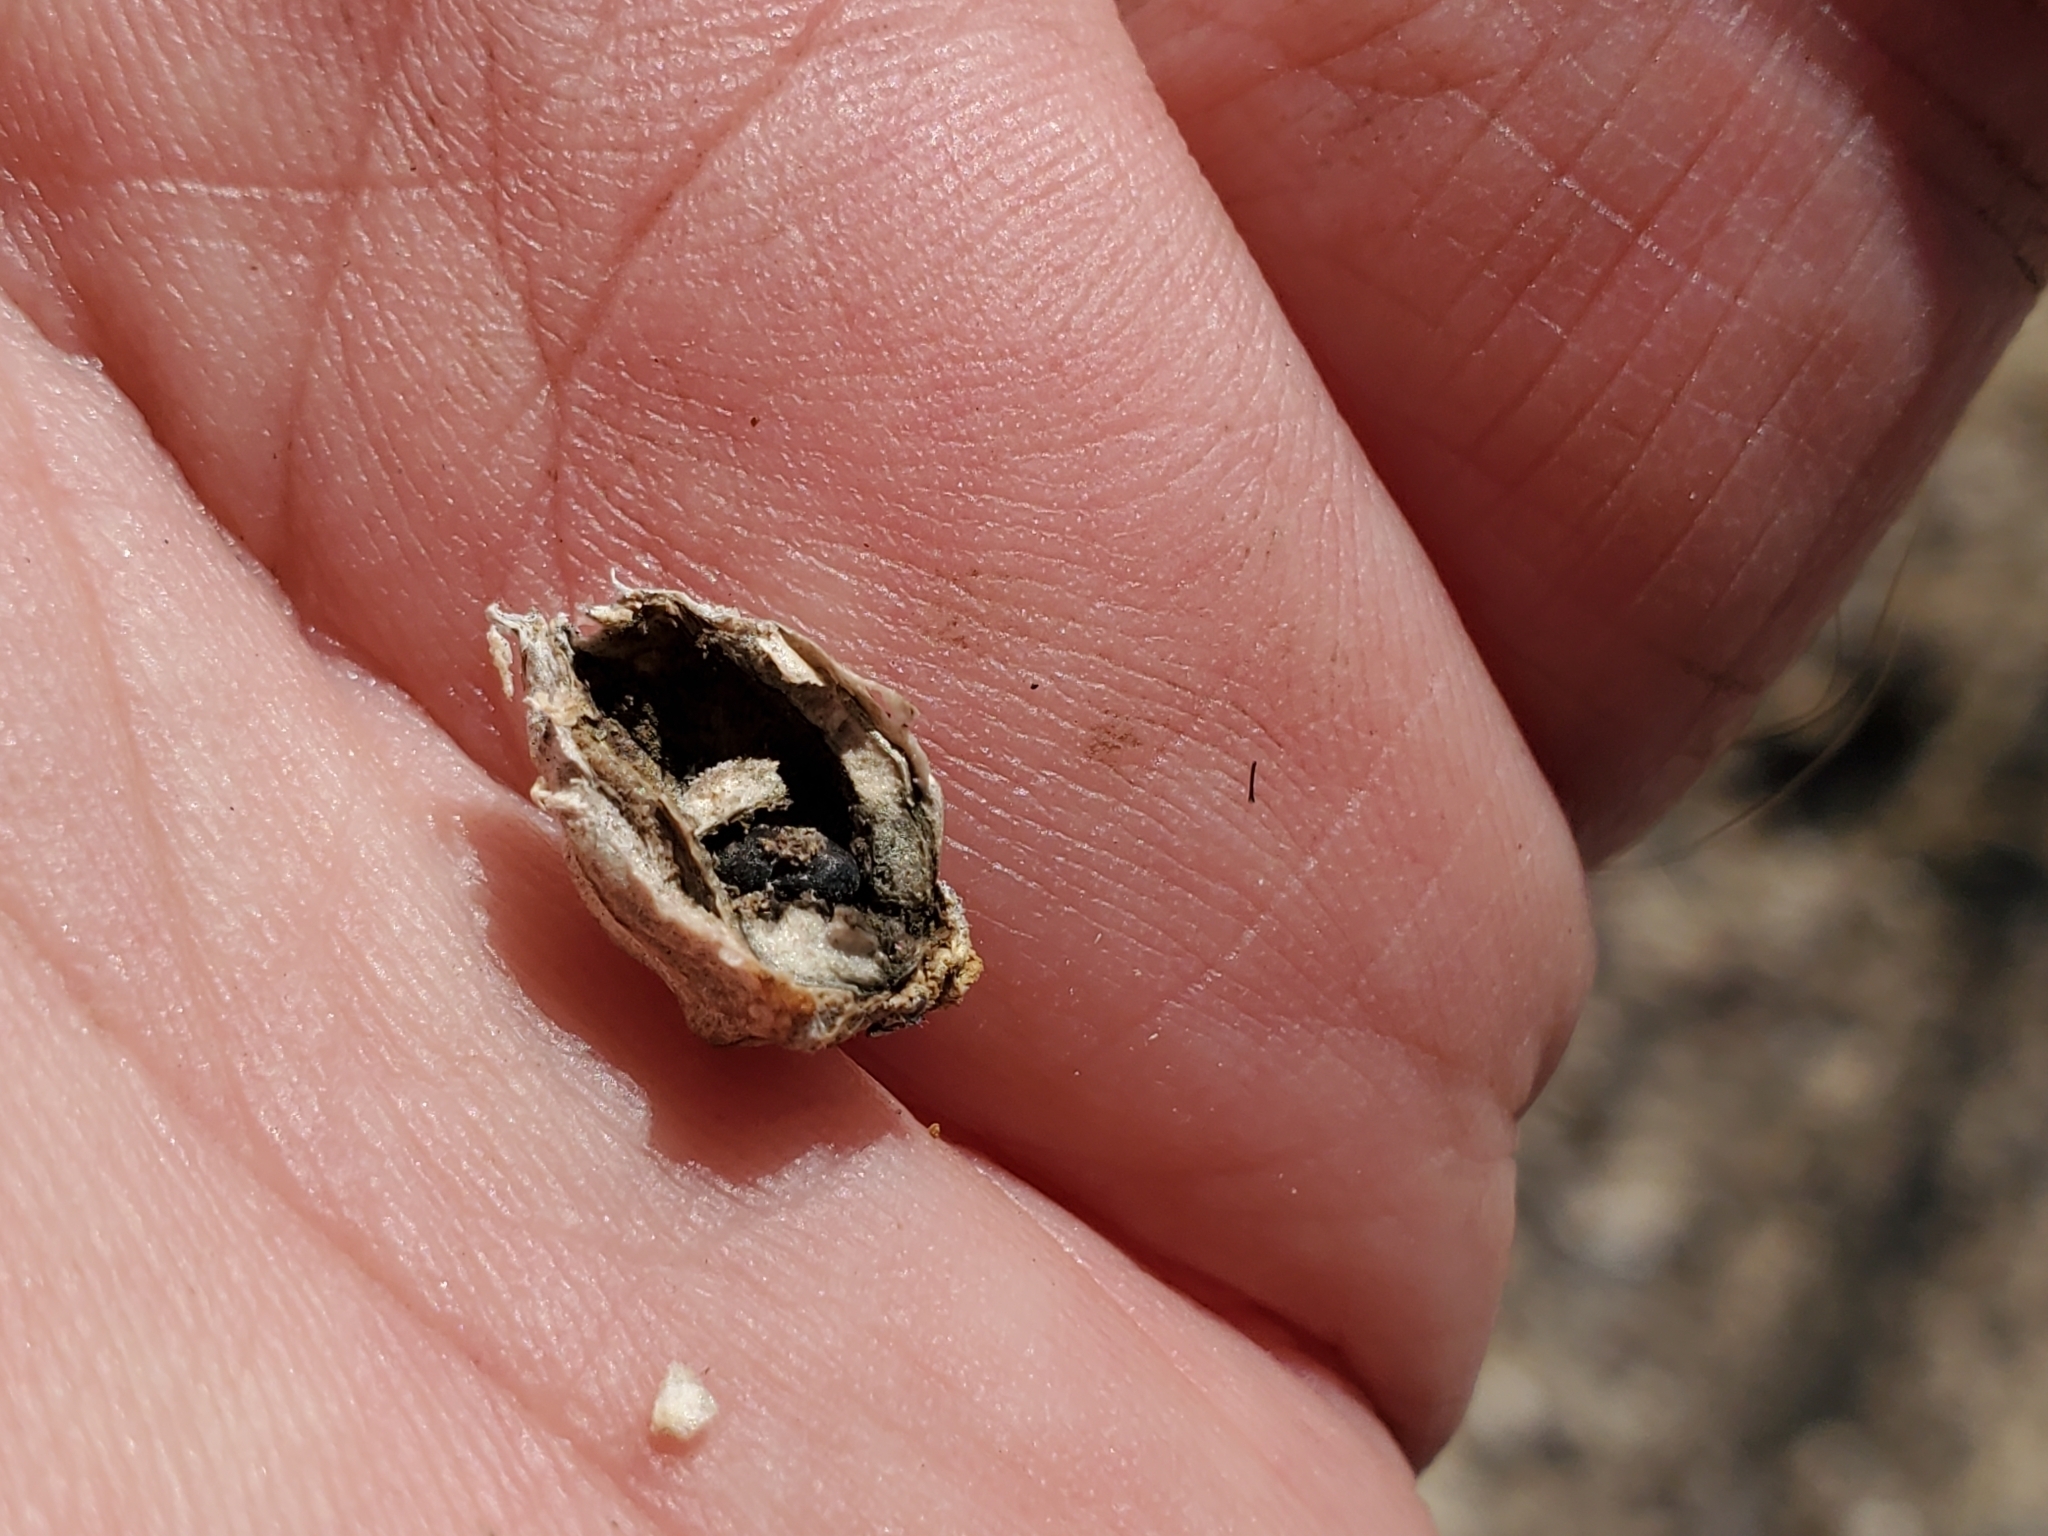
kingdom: Plantae
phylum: Tracheophyta
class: Magnoliopsida
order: Asterales
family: Asteraceae
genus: Ambrosia
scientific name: Ambrosia deltoidea
